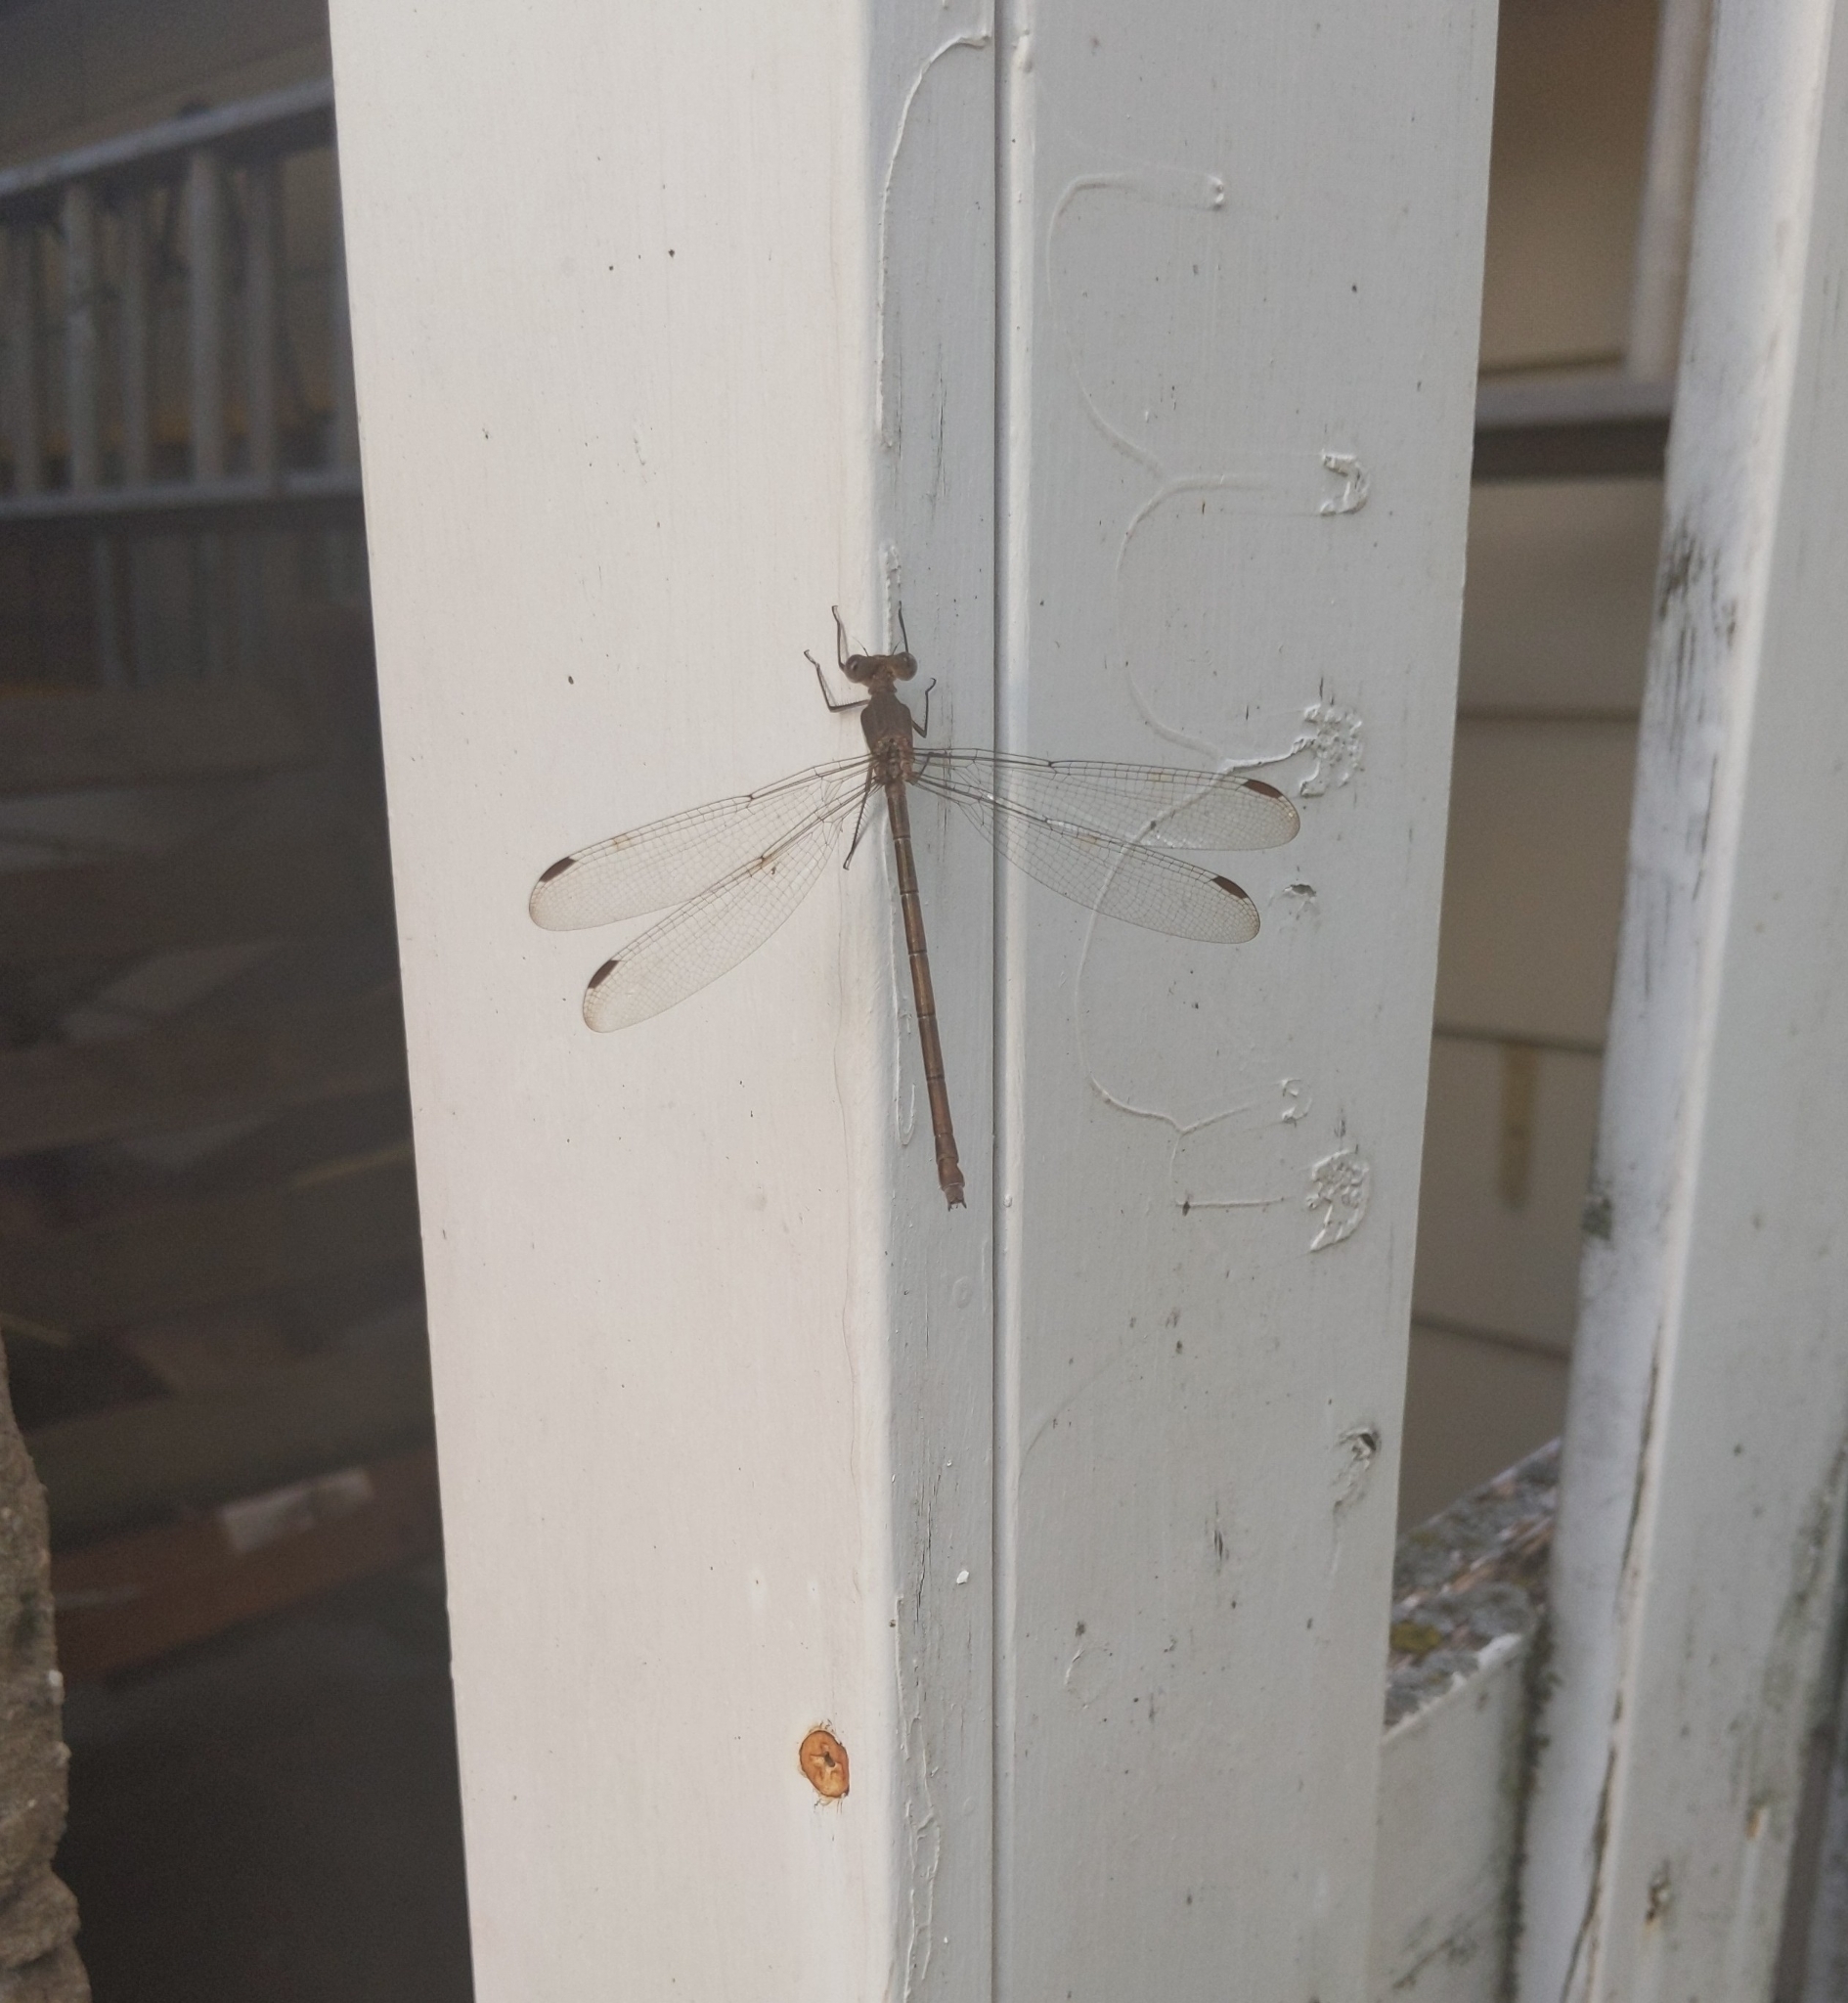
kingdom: Animalia
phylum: Arthropoda
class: Insecta
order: Odonata
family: Lestidae
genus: Archilestes
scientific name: Archilestes grandis
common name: Great spreadwing
